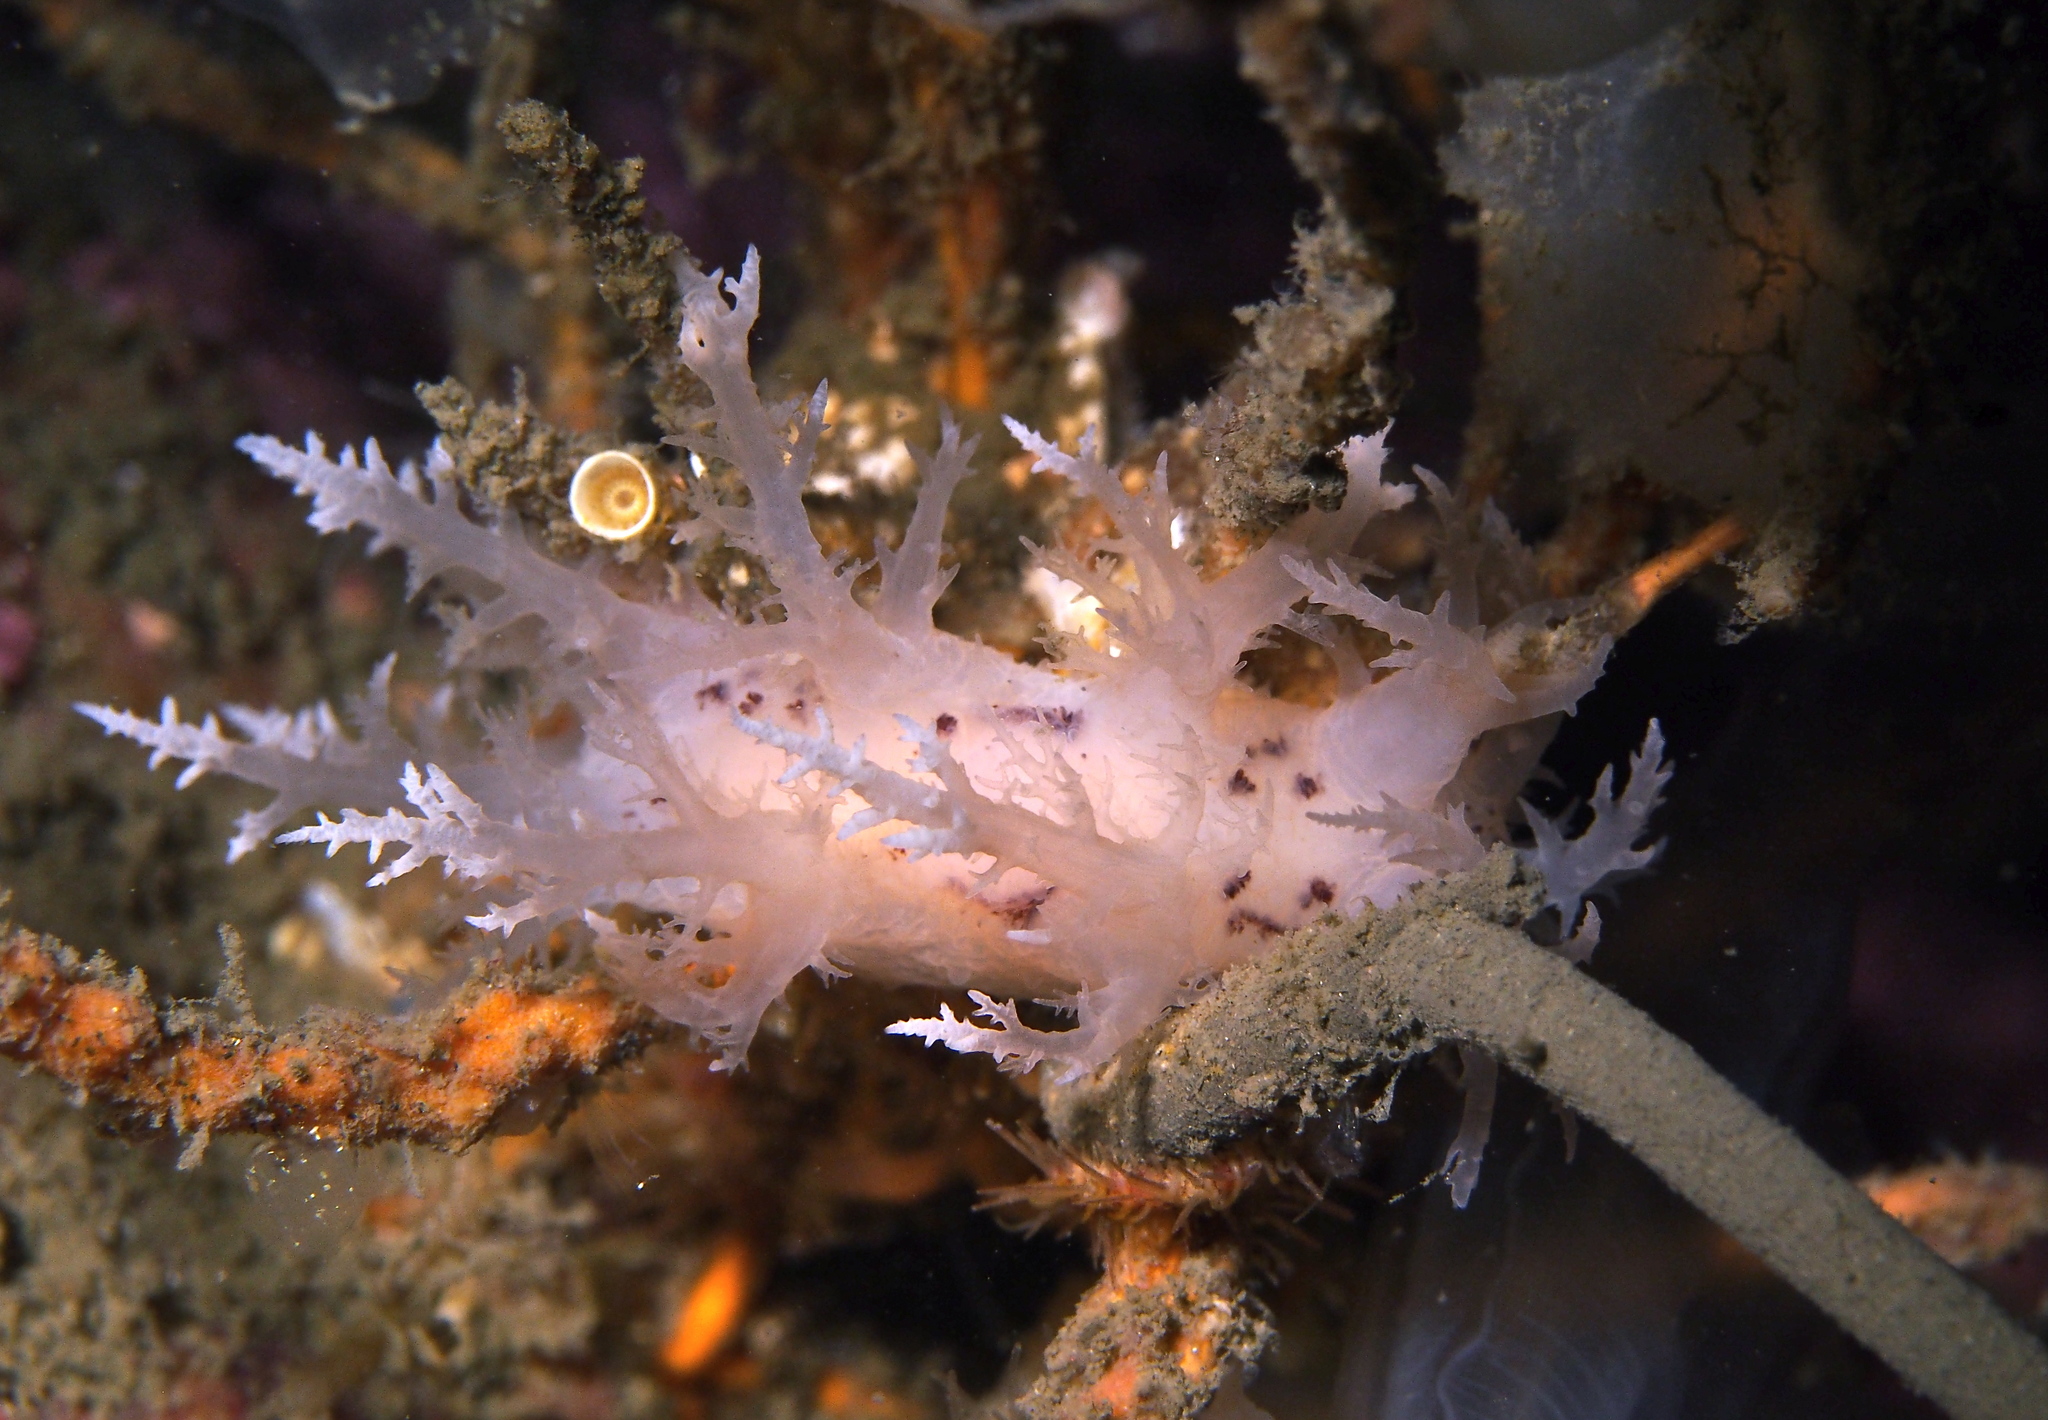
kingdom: Animalia
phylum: Mollusca
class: Gastropoda
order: Nudibranchia
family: Dendronotidae
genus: Dendronotus
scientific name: Dendronotus europaeus
